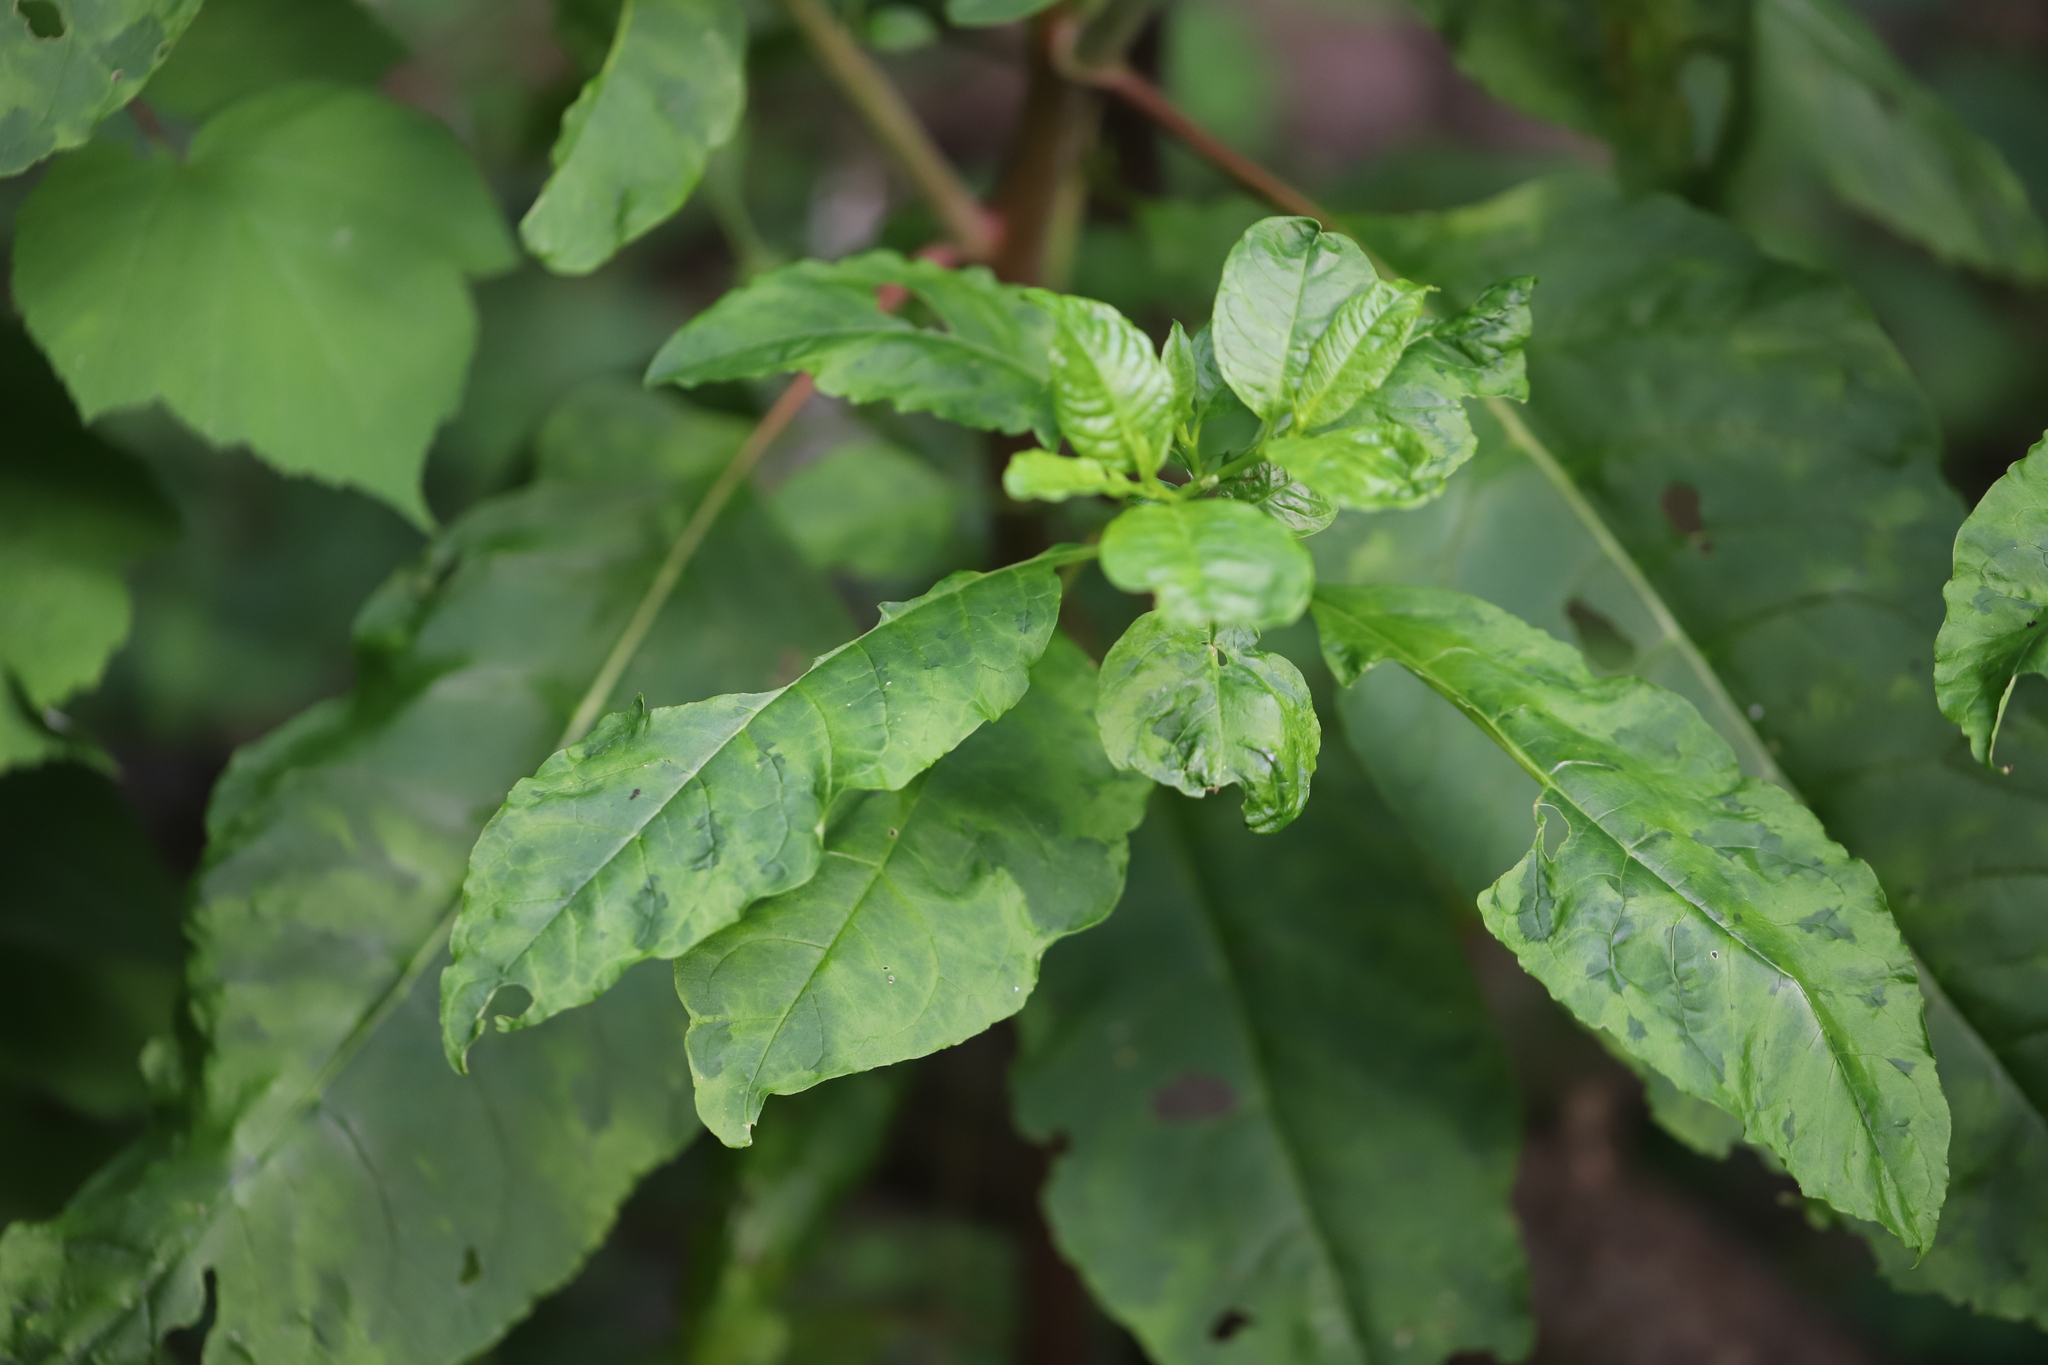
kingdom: Viruses
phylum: Pisuviricota
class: Stelpaviricetes
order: Patatavirales
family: Potyviridae
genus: Potyvirus
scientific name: Potyvirus Pokeweed mosaic virus
